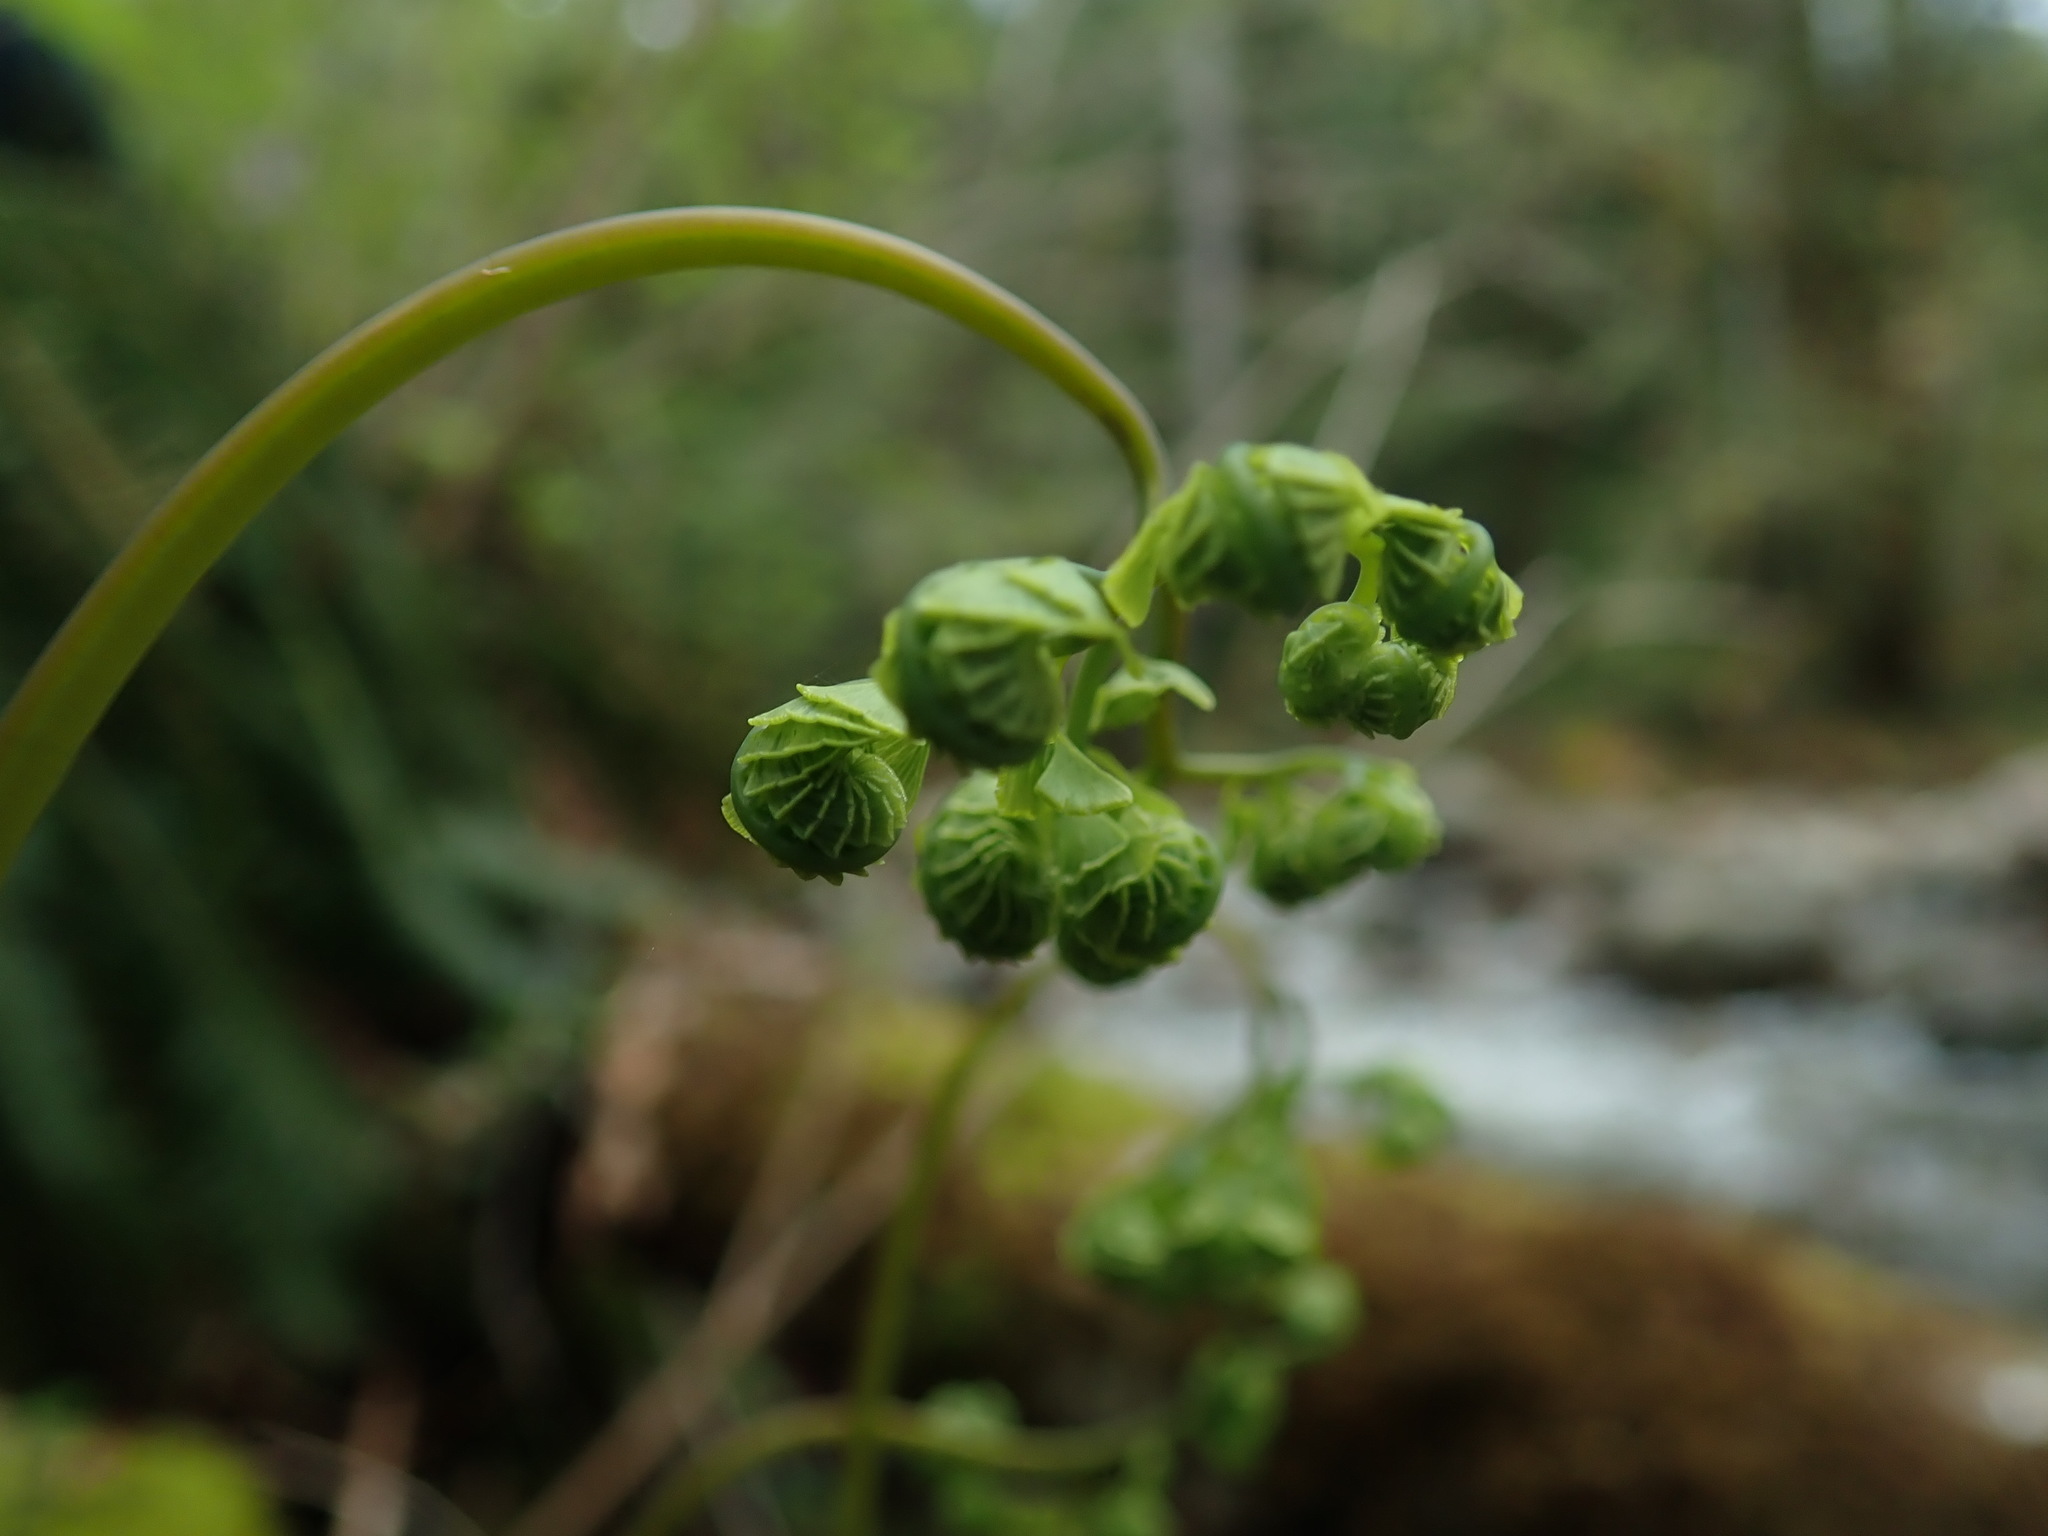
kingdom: Plantae
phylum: Tracheophyta
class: Polypodiopsida
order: Polypodiales
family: Pteridaceae
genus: Adiantum
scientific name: Adiantum aleuticum
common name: Aleutian maidenhair fern
